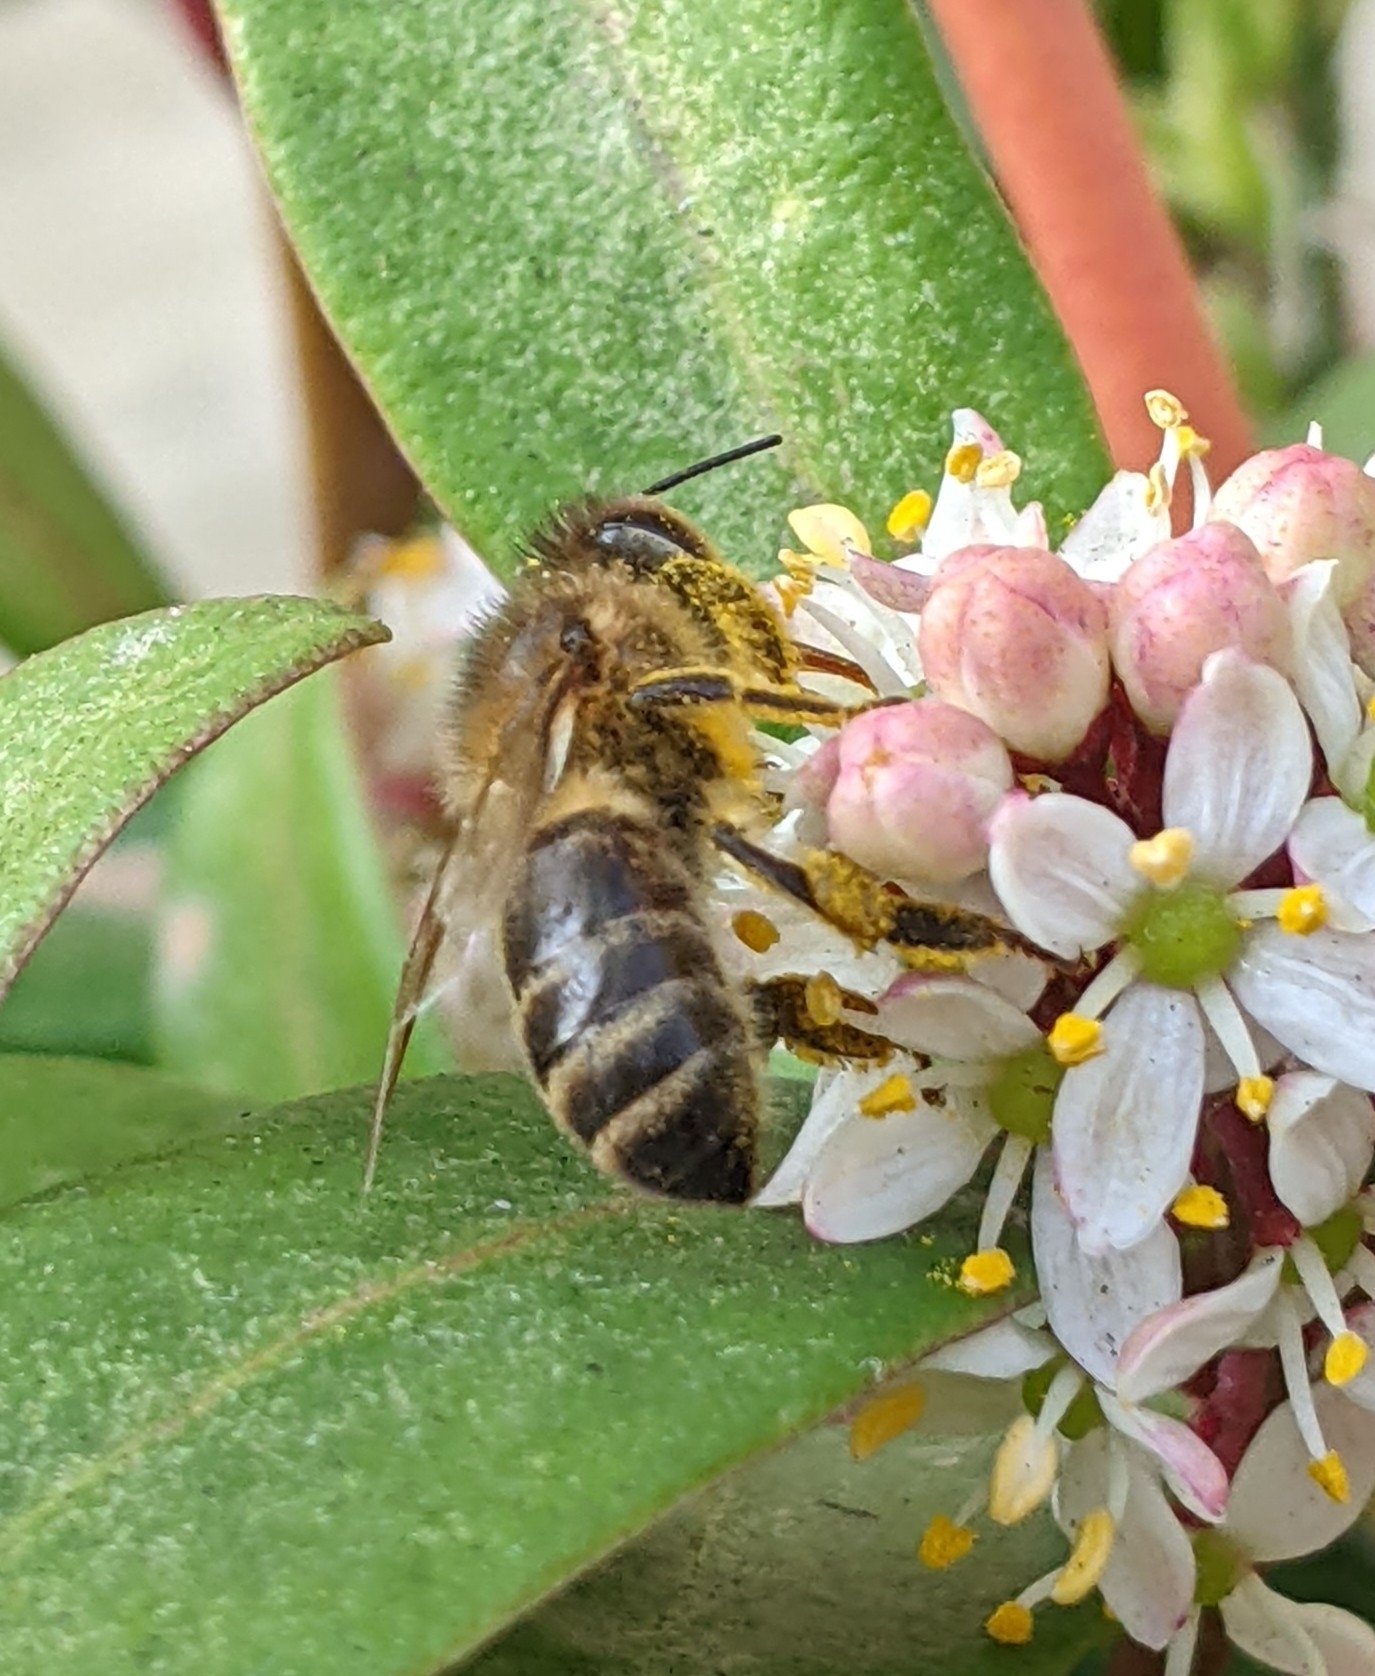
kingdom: Animalia
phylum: Arthropoda
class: Insecta
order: Hymenoptera
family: Apidae
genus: Apis
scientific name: Apis mellifera
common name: Honey bee
